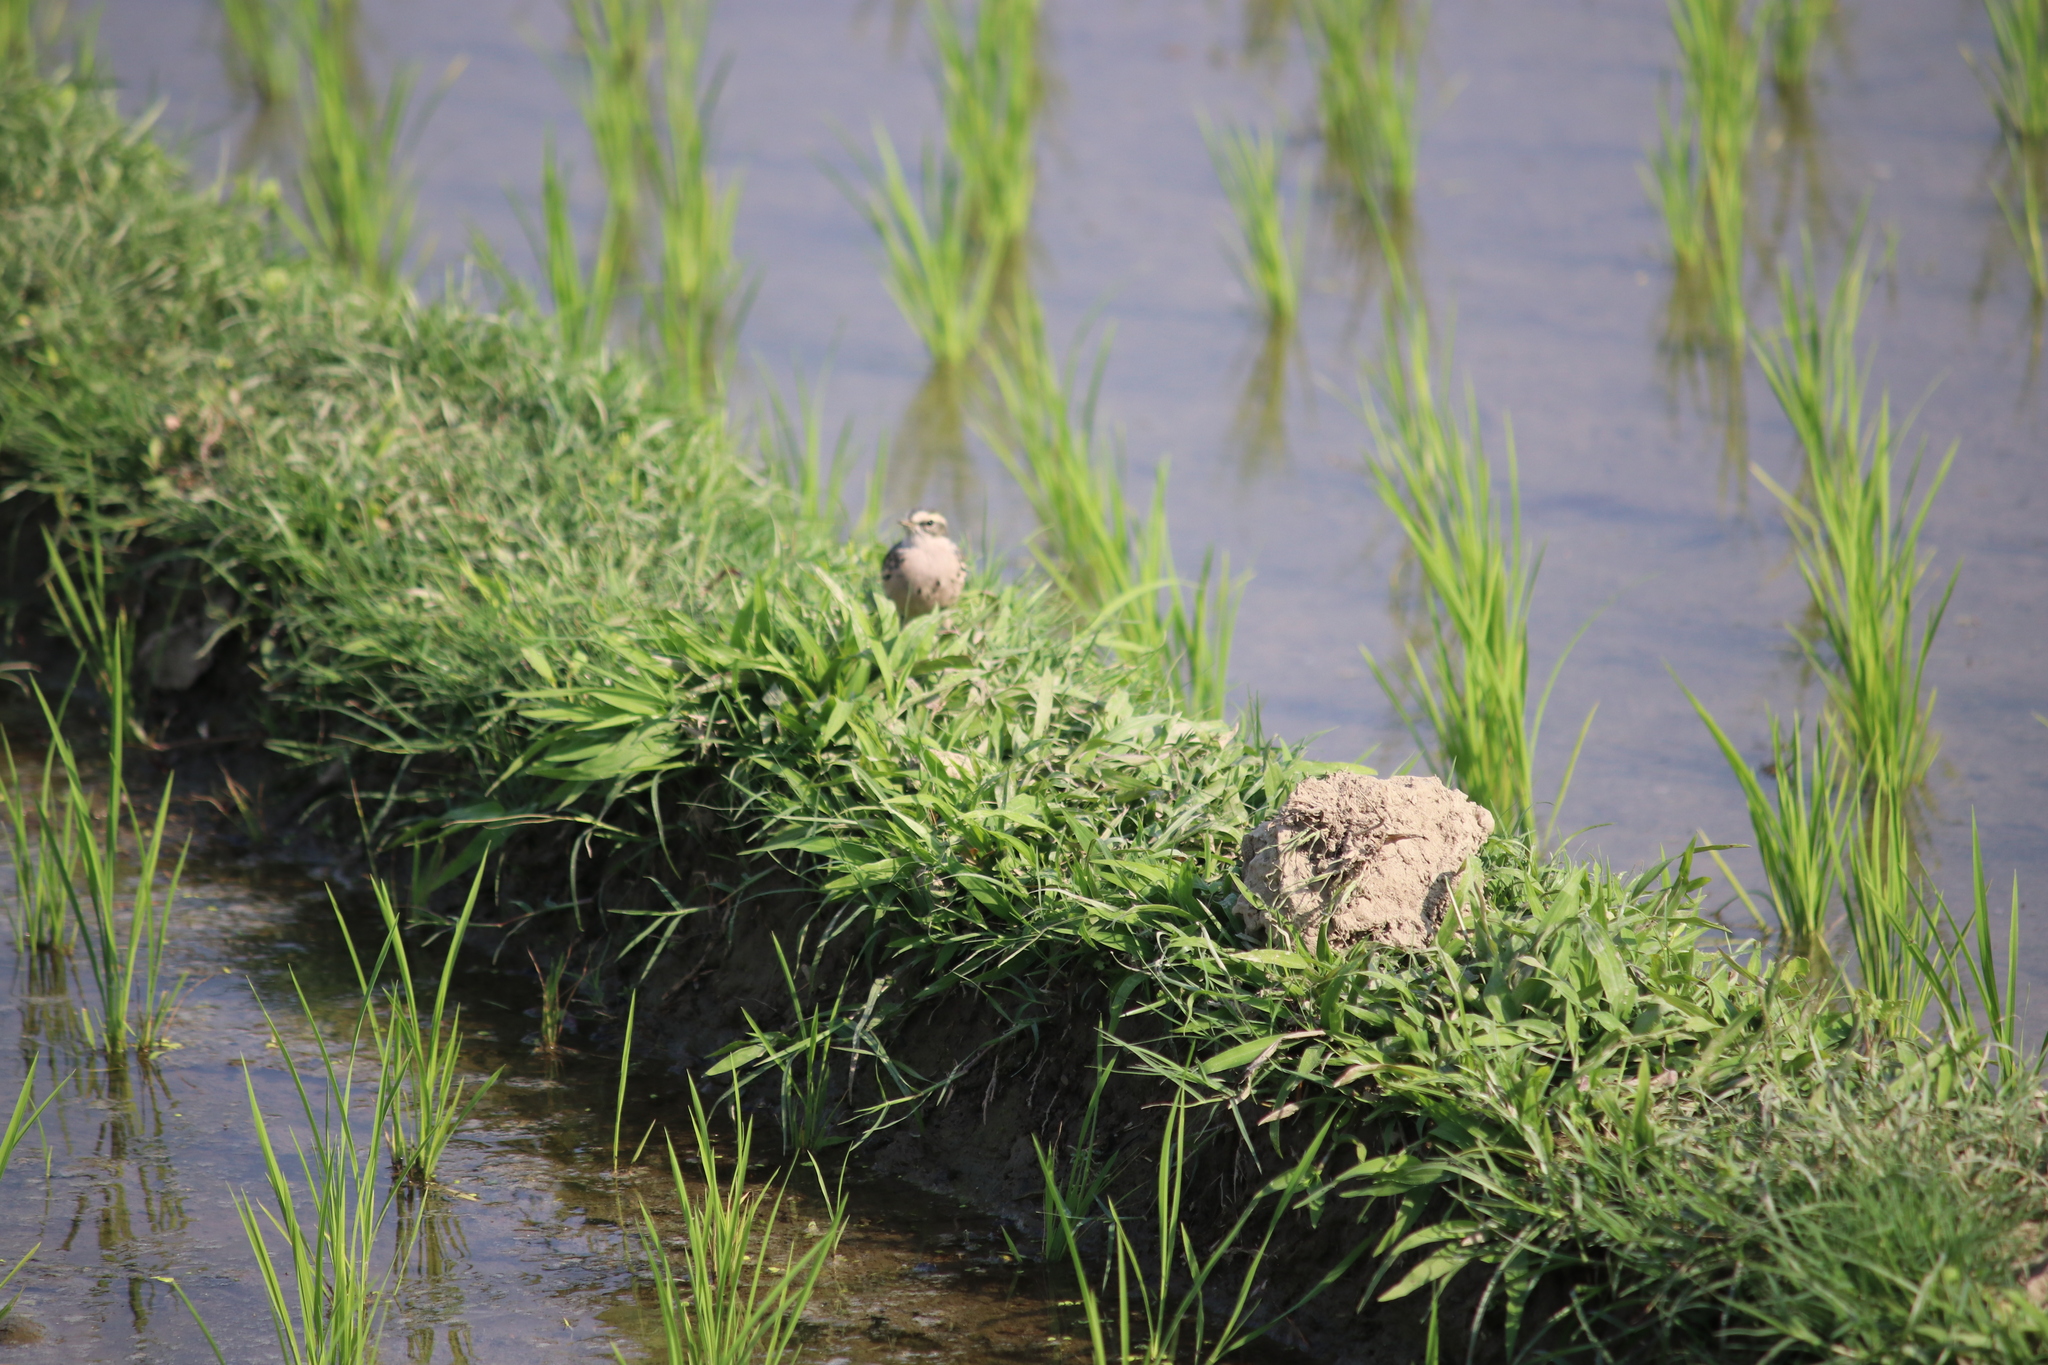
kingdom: Animalia
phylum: Chordata
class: Aves
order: Passeriformes
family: Motacillidae
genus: Anthus
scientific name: Anthus roseatus
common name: Rosy pipit
